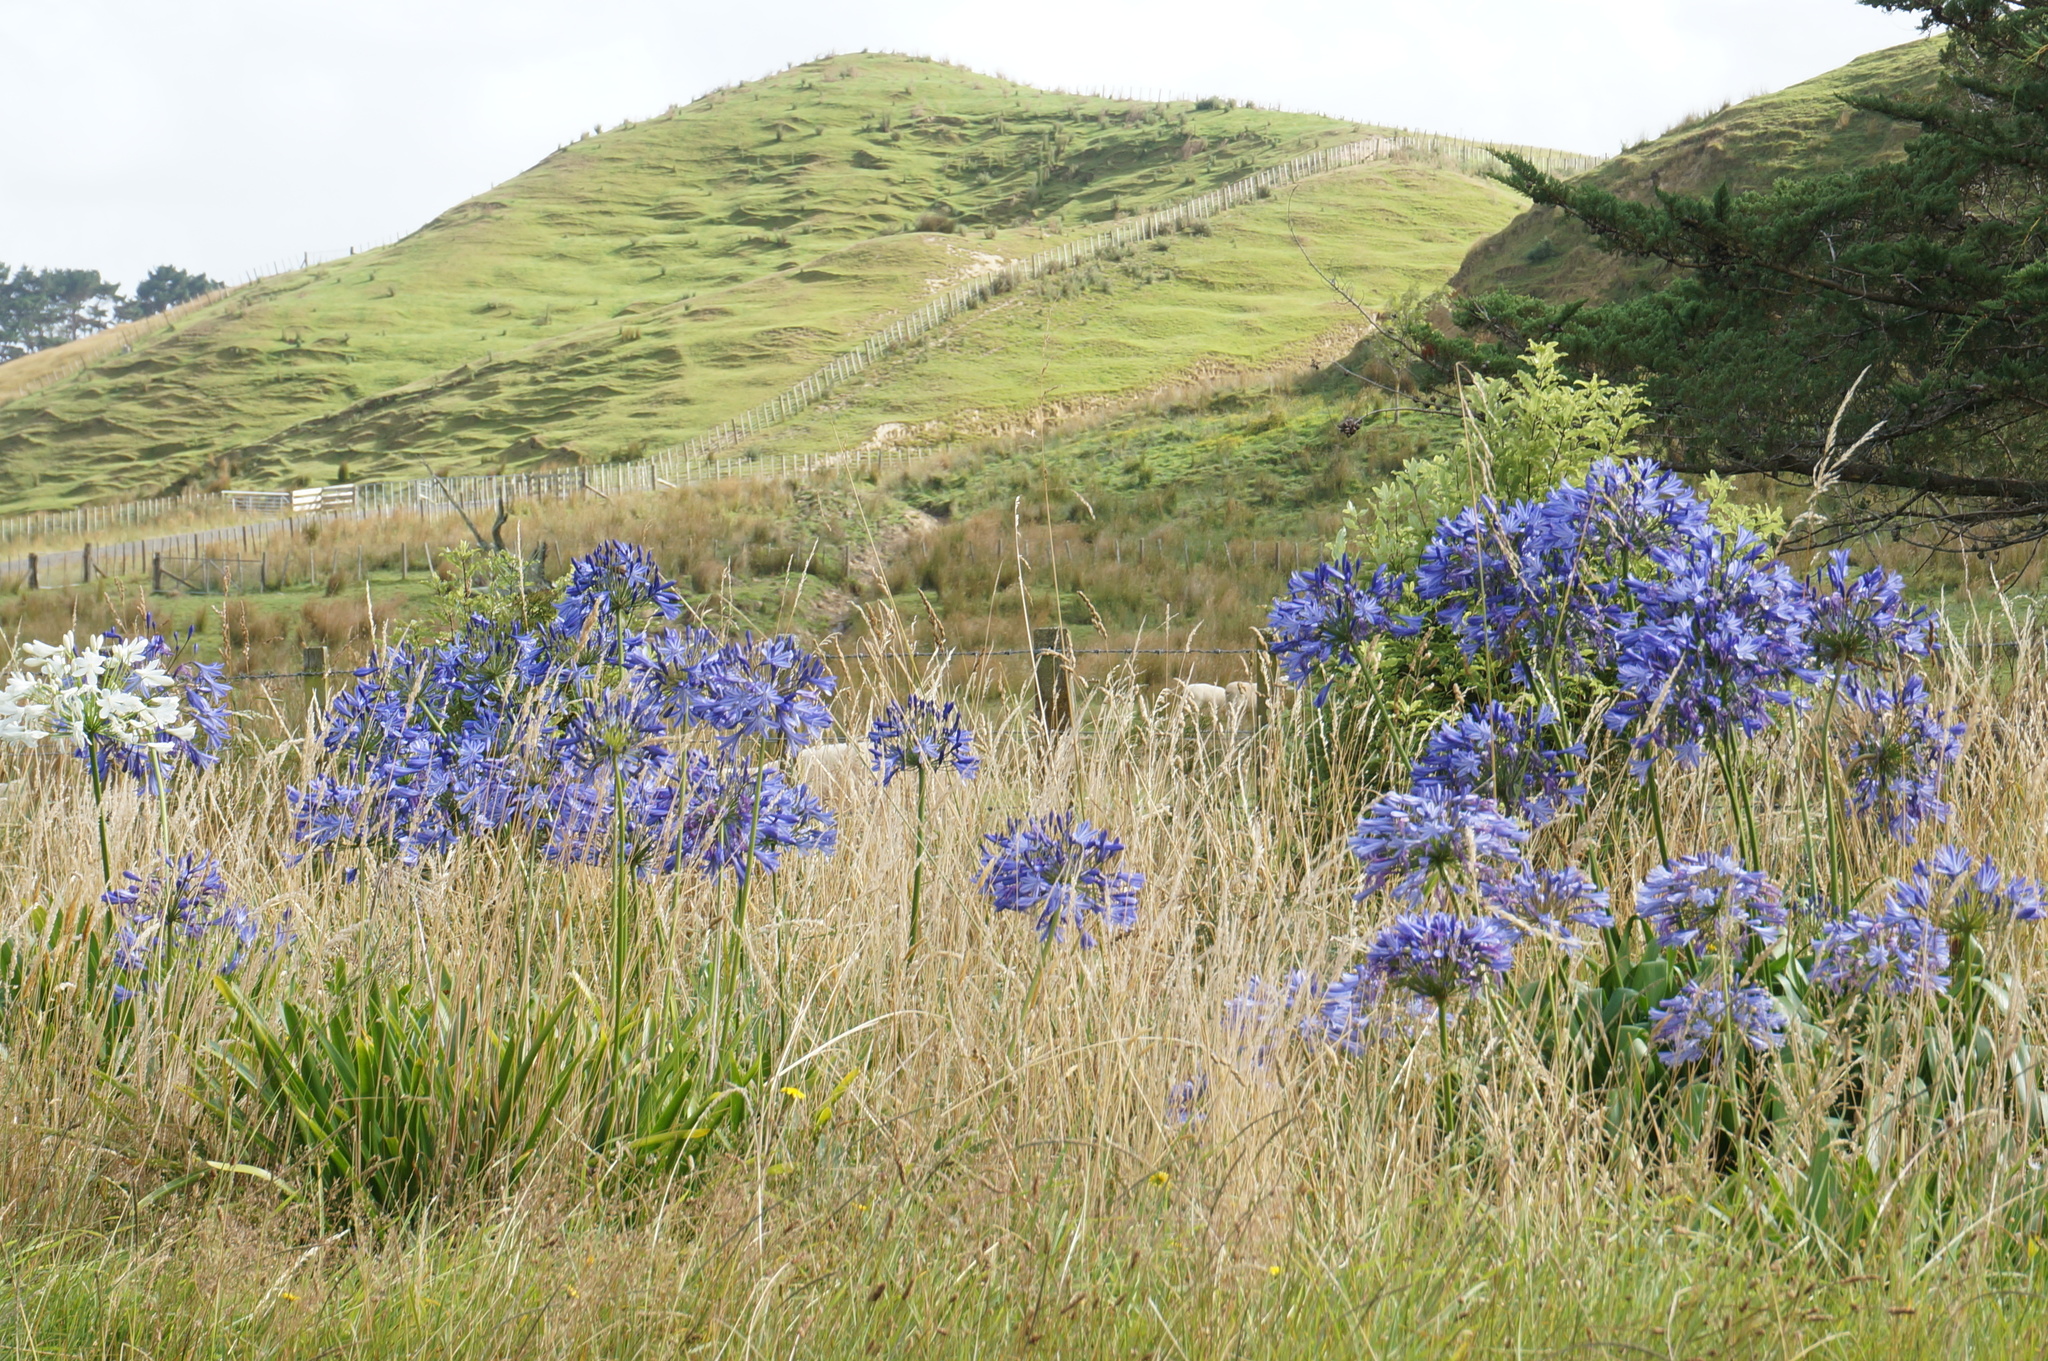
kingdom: Plantae
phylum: Tracheophyta
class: Liliopsida
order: Asparagales
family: Amaryllidaceae
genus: Agapanthus
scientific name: Agapanthus praecox
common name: African-lily
